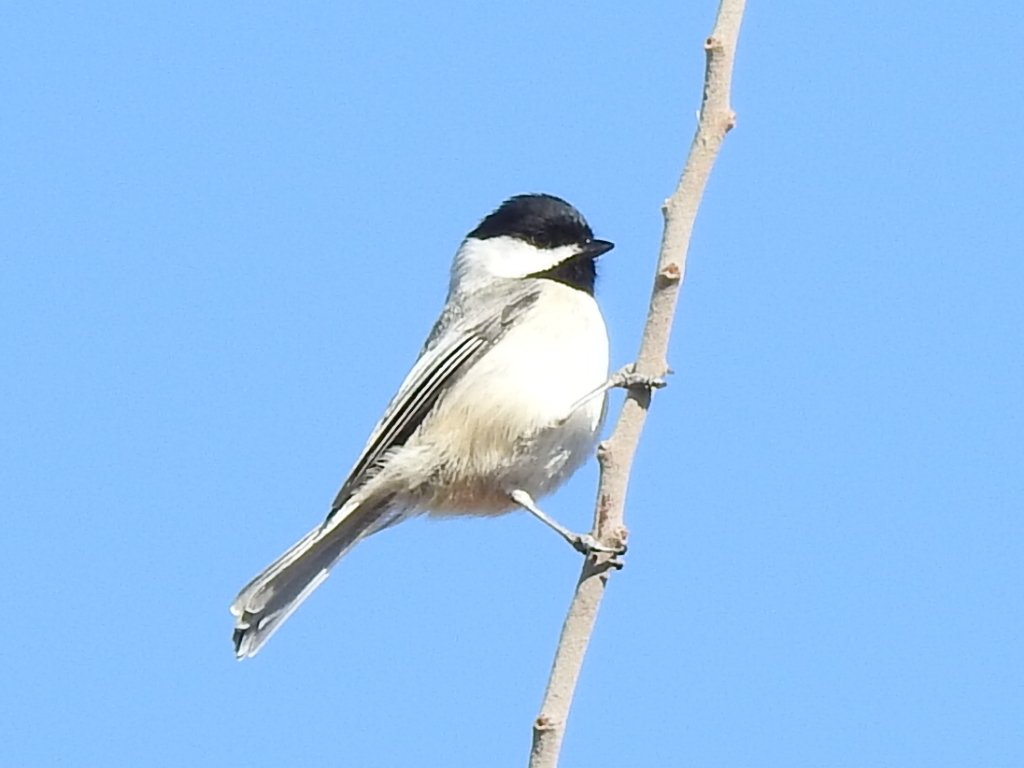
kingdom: Animalia
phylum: Chordata
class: Aves
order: Passeriformes
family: Paridae
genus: Poecile
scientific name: Poecile carolinensis
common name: Carolina chickadee
